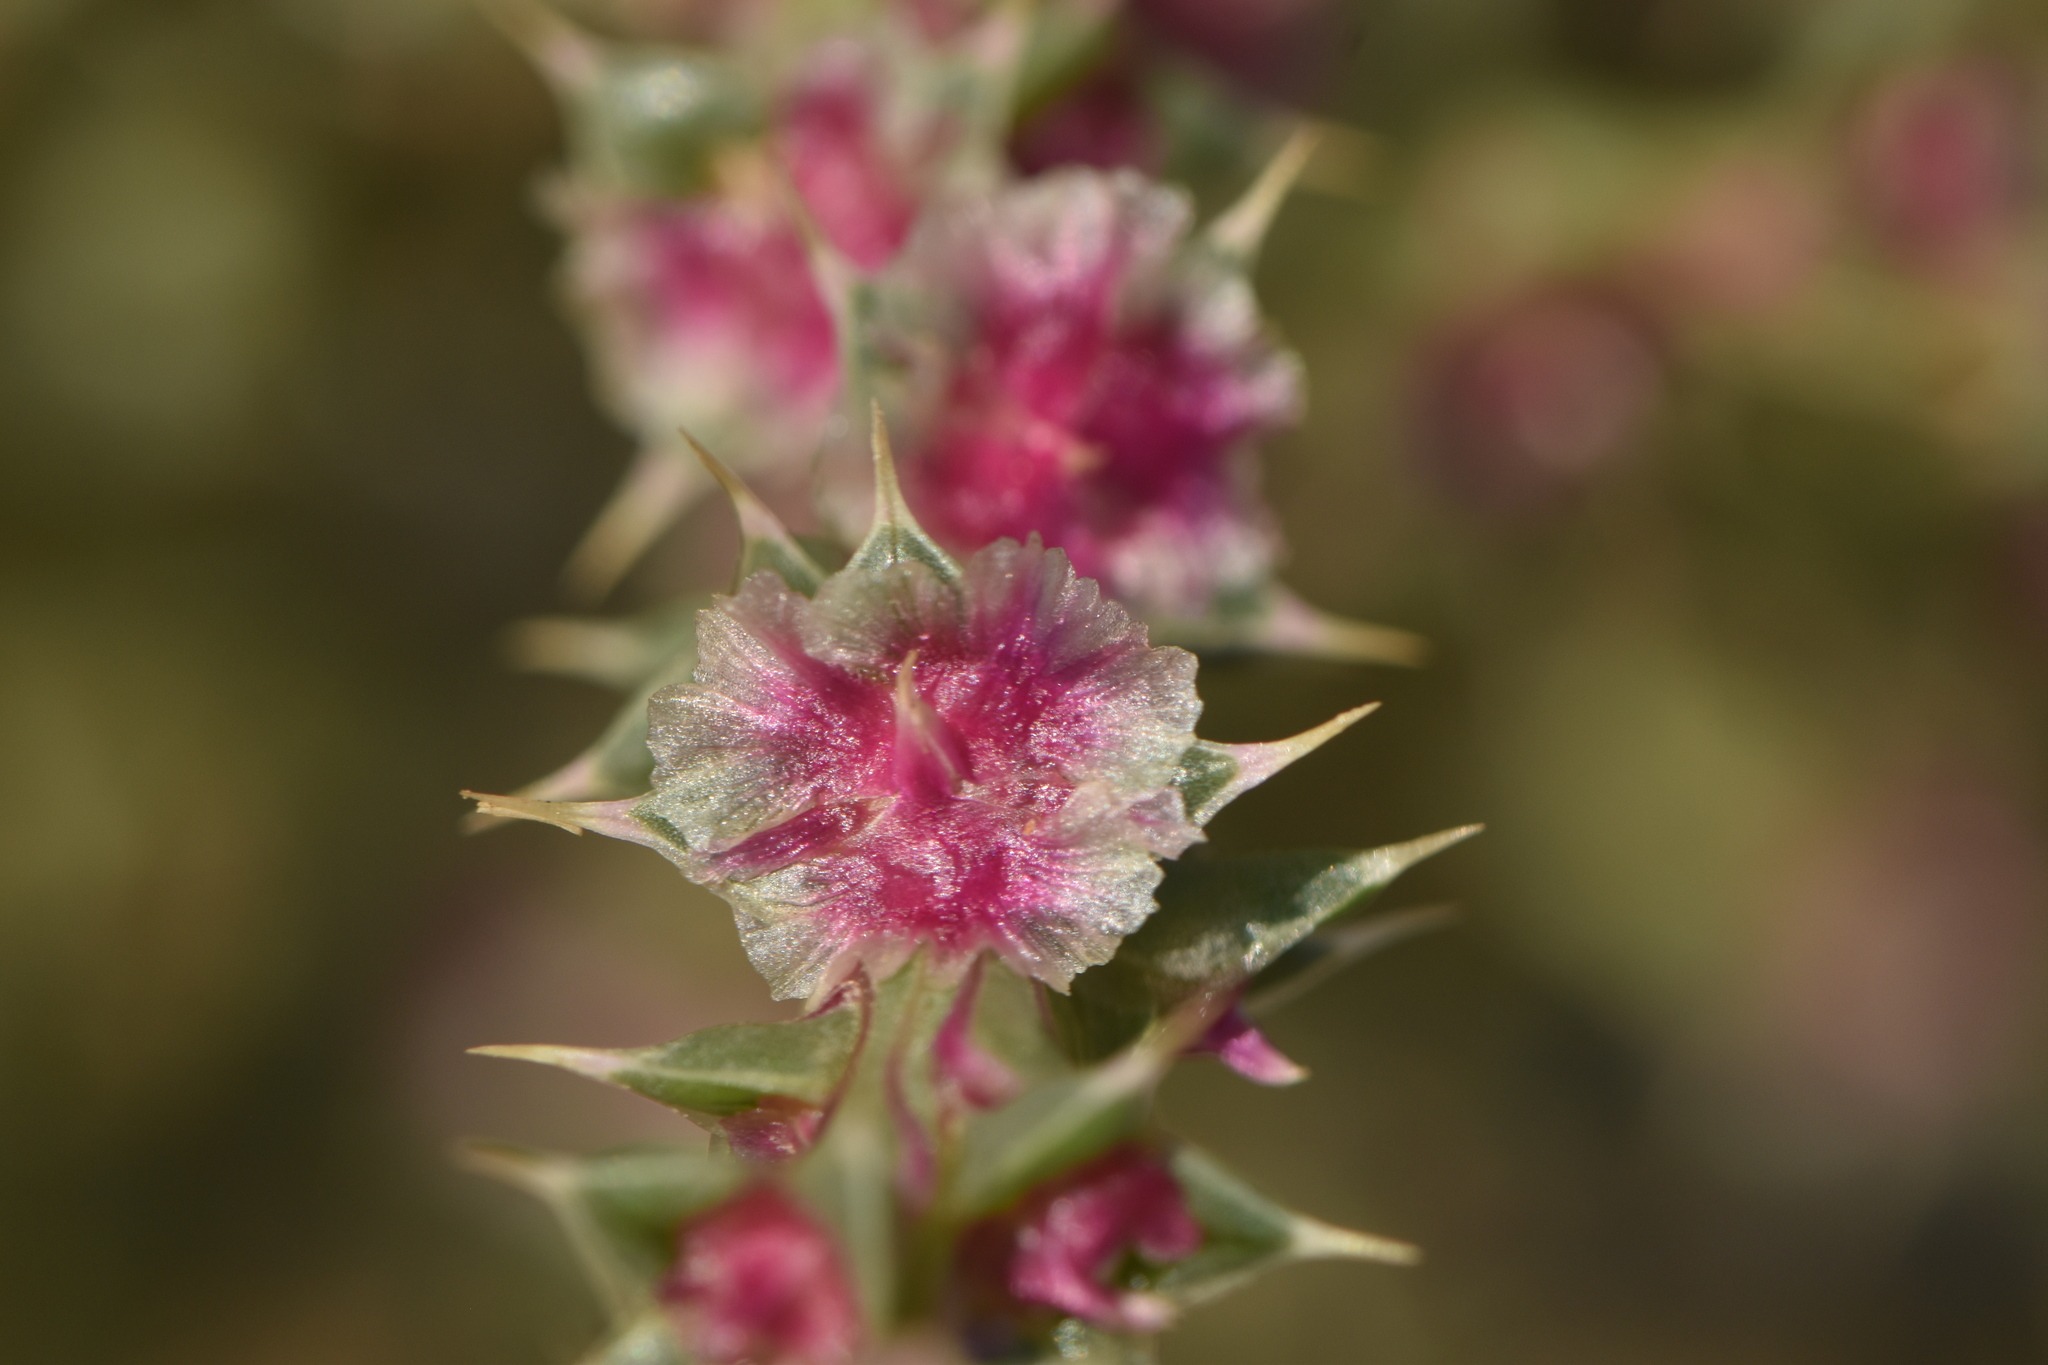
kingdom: Plantae
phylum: Tracheophyta
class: Magnoliopsida
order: Caryophyllales
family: Amaranthaceae
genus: Salsola
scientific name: Salsola kali
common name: Saltwort
